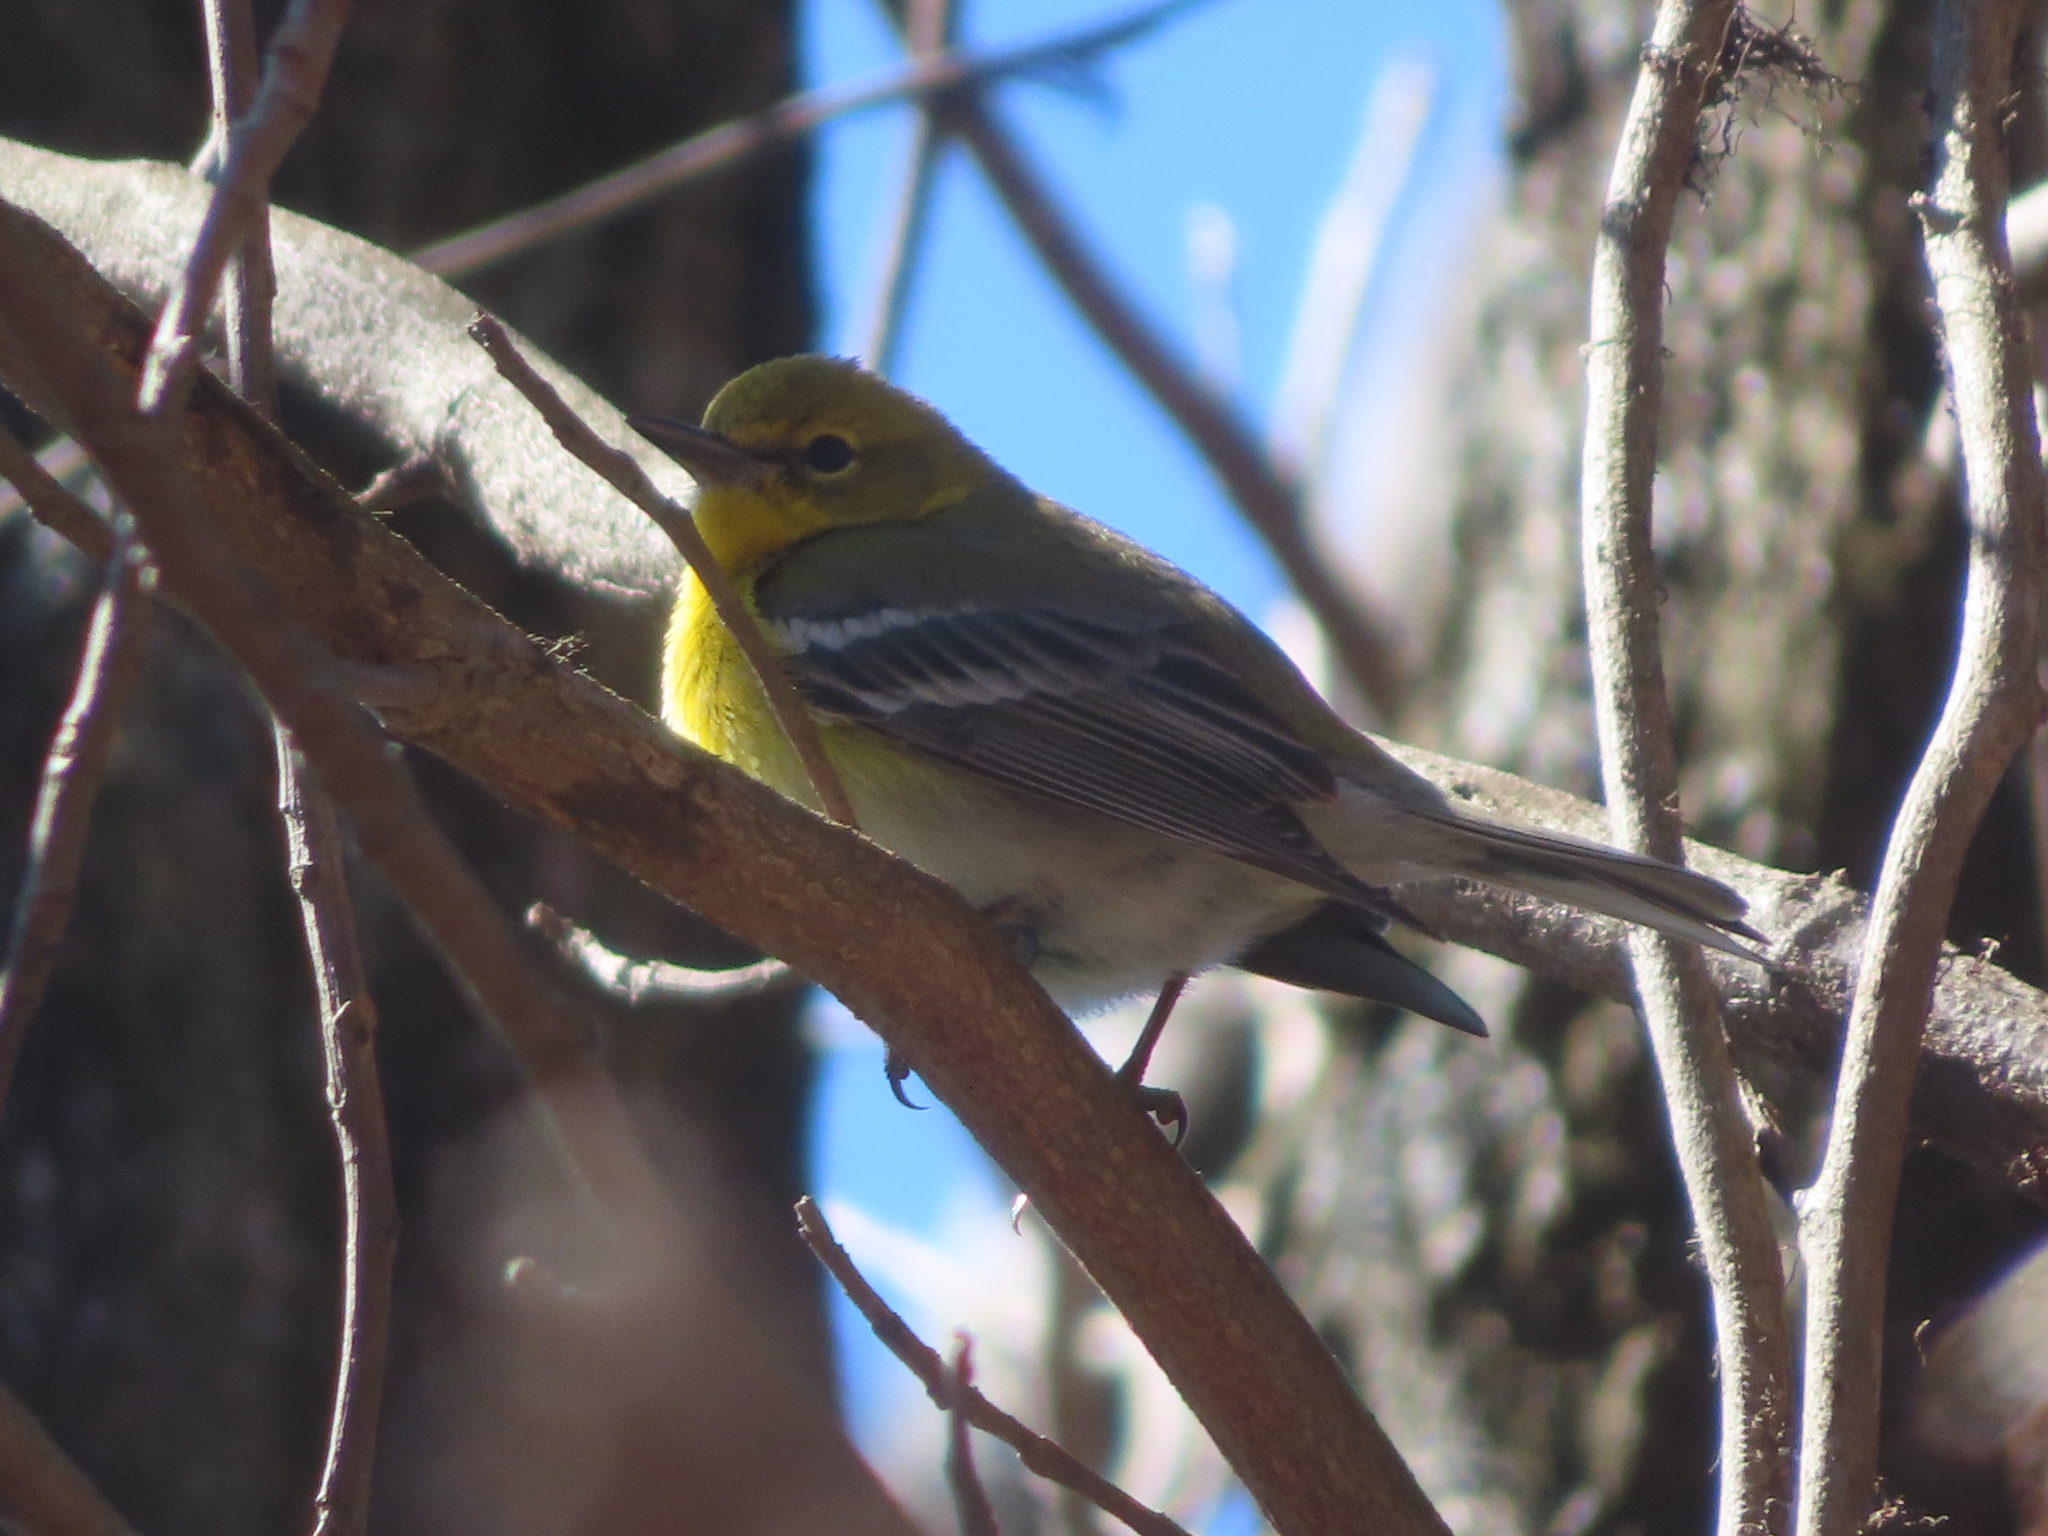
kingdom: Animalia
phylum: Chordata
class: Aves
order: Passeriformes
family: Parulidae
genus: Setophaga
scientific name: Setophaga pinus
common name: Pine warbler
